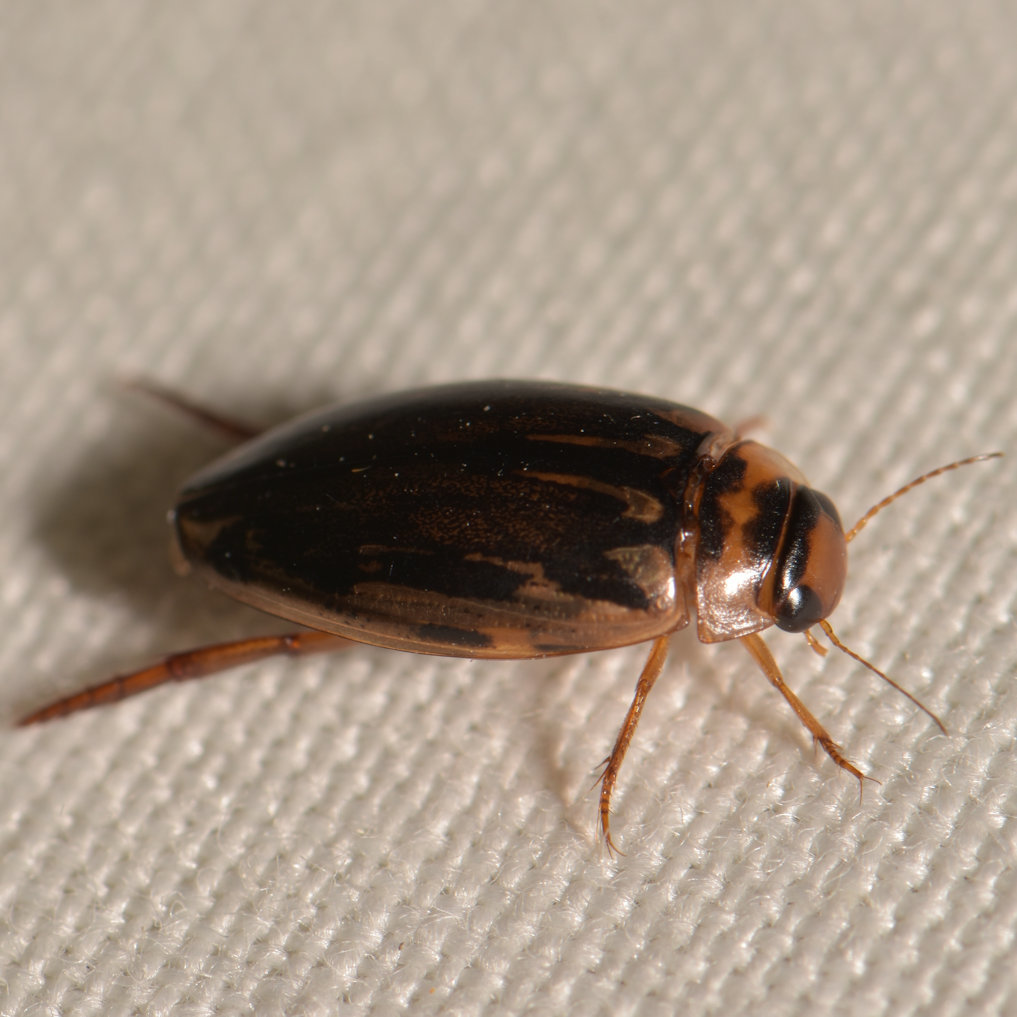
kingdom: Animalia
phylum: Arthropoda
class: Insecta
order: Coleoptera
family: Dytiscidae
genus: Coptotomus
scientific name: Coptotomus longulus
